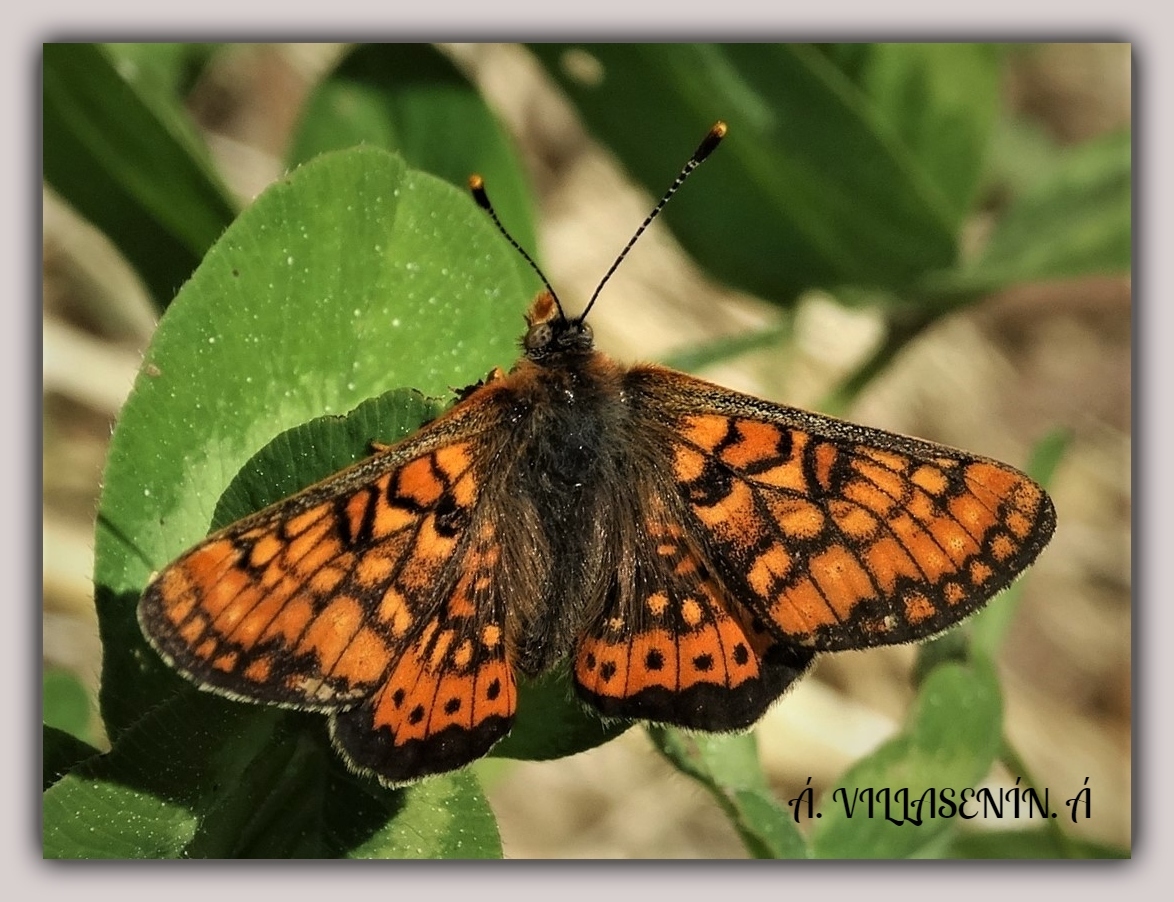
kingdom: Animalia
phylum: Arthropoda
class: Insecta
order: Lepidoptera
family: Nymphalidae
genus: Euphydryas
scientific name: Euphydryas aurinia
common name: Marsh fritillary
